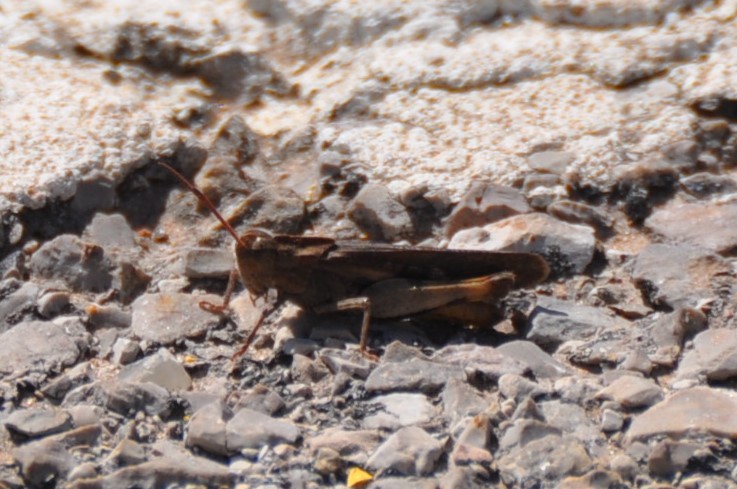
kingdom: Animalia
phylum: Arthropoda
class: Insecta
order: Orthoptera
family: Acrididae
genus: Chortophaga
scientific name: Chortophaga viridifasciata
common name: Green-striped grasshopper
